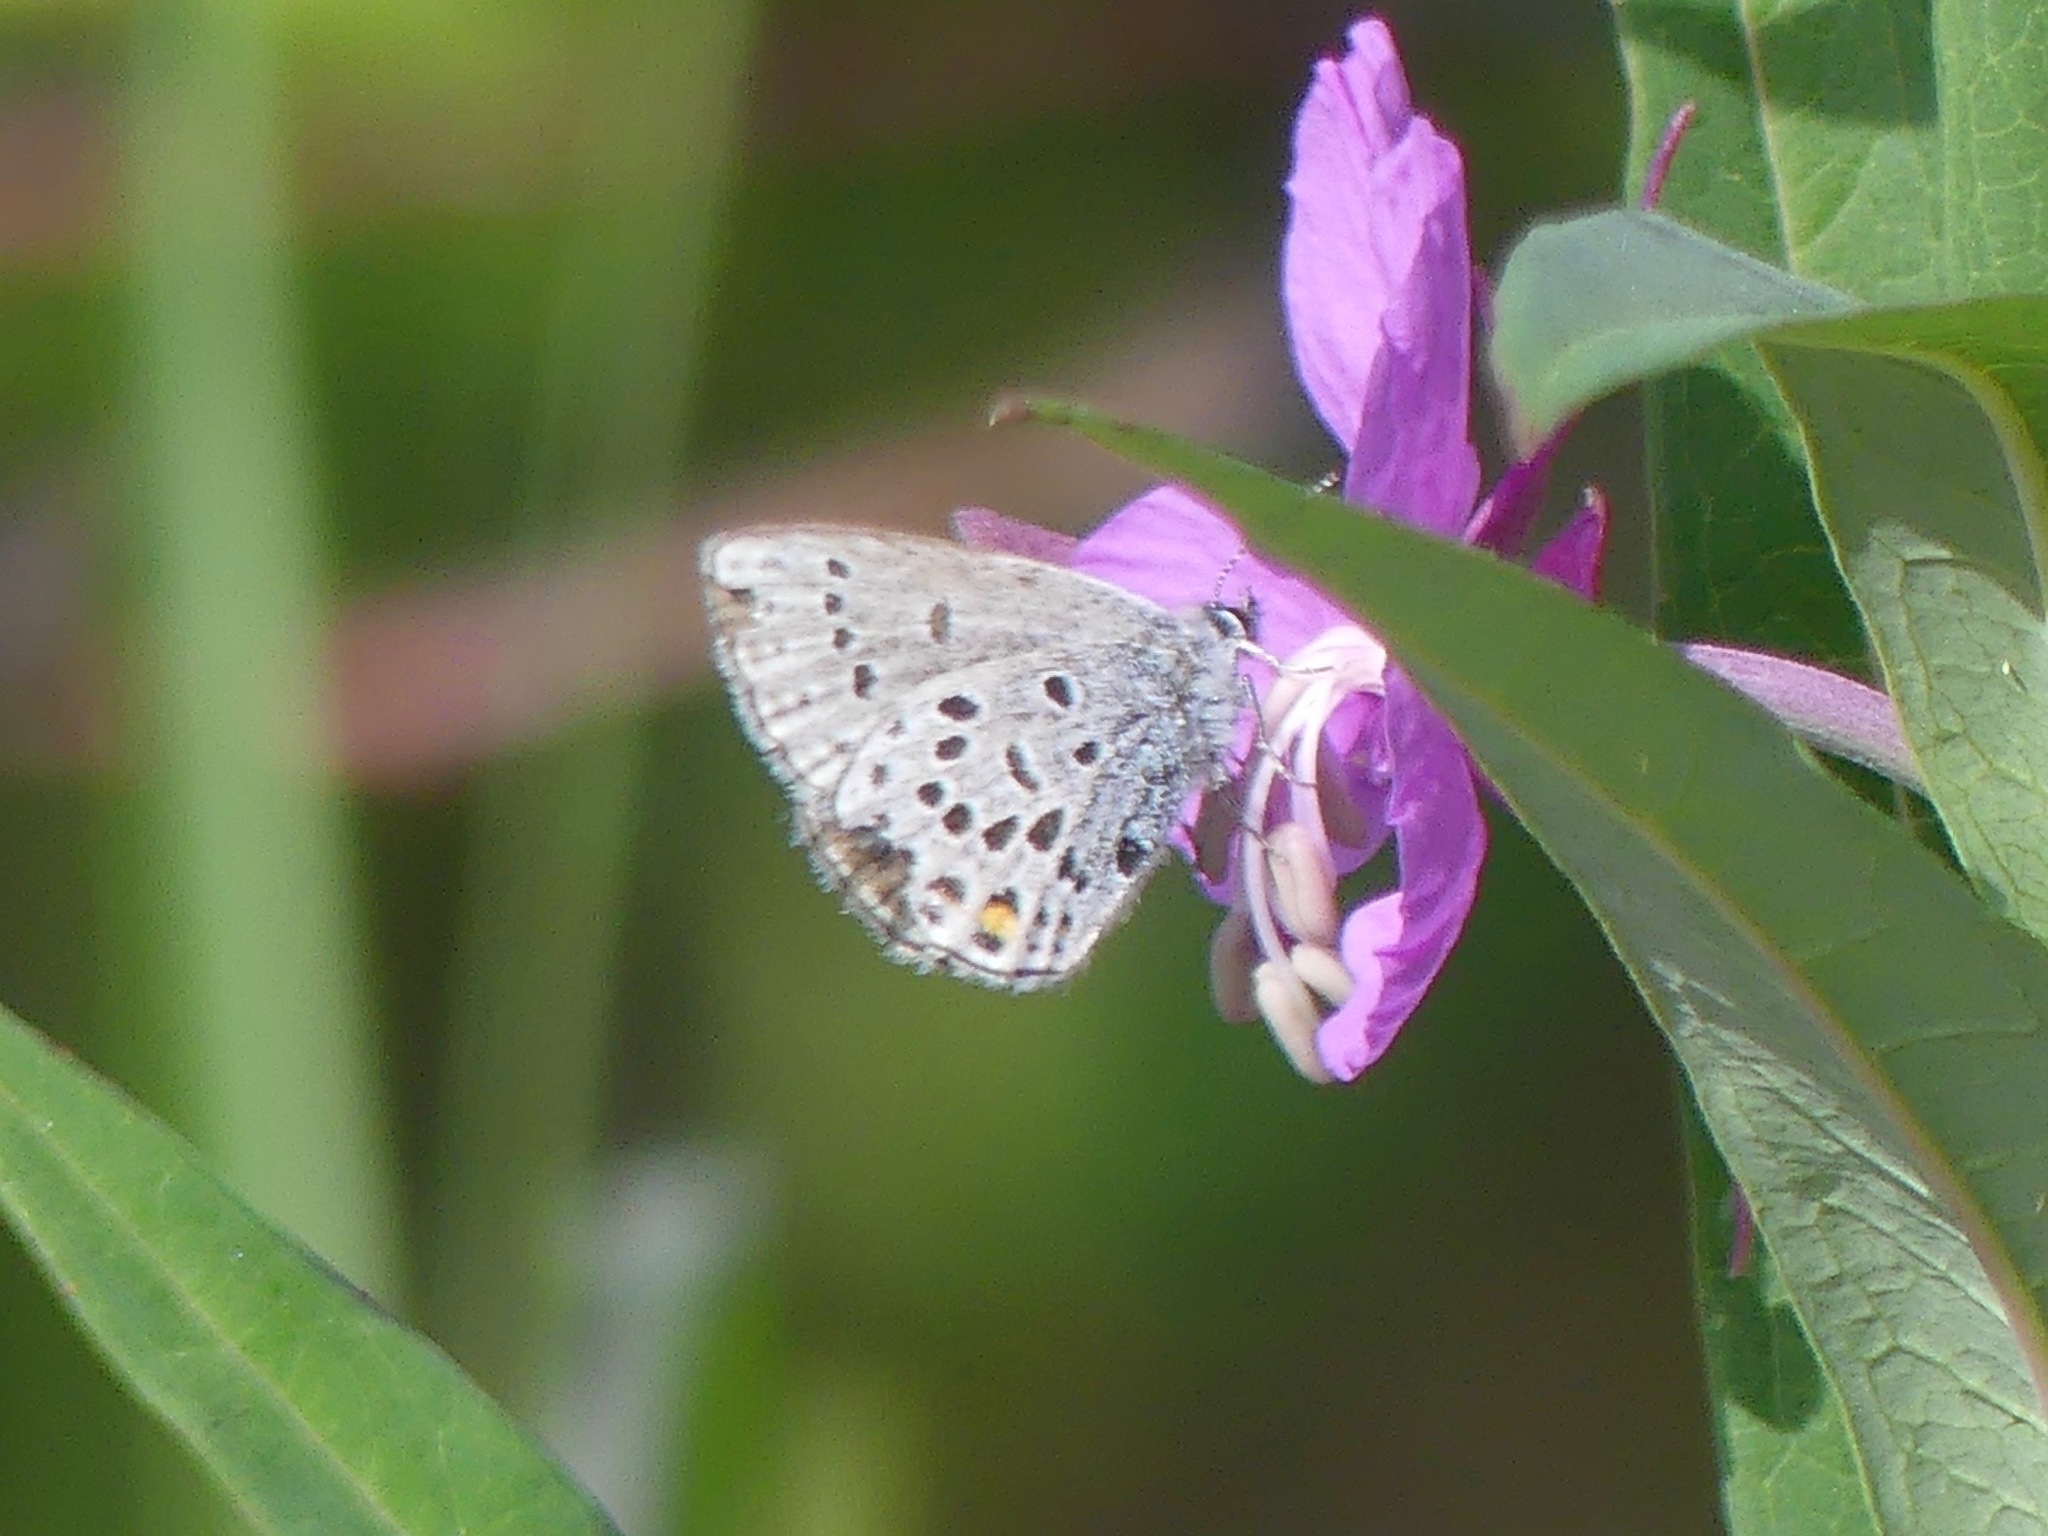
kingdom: Animalia
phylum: Arthropoda
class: Insecta
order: Lepidoptera
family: Lycaenidae
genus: Vacciniina
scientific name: Vacciniina optilete
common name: Cranberry blue
